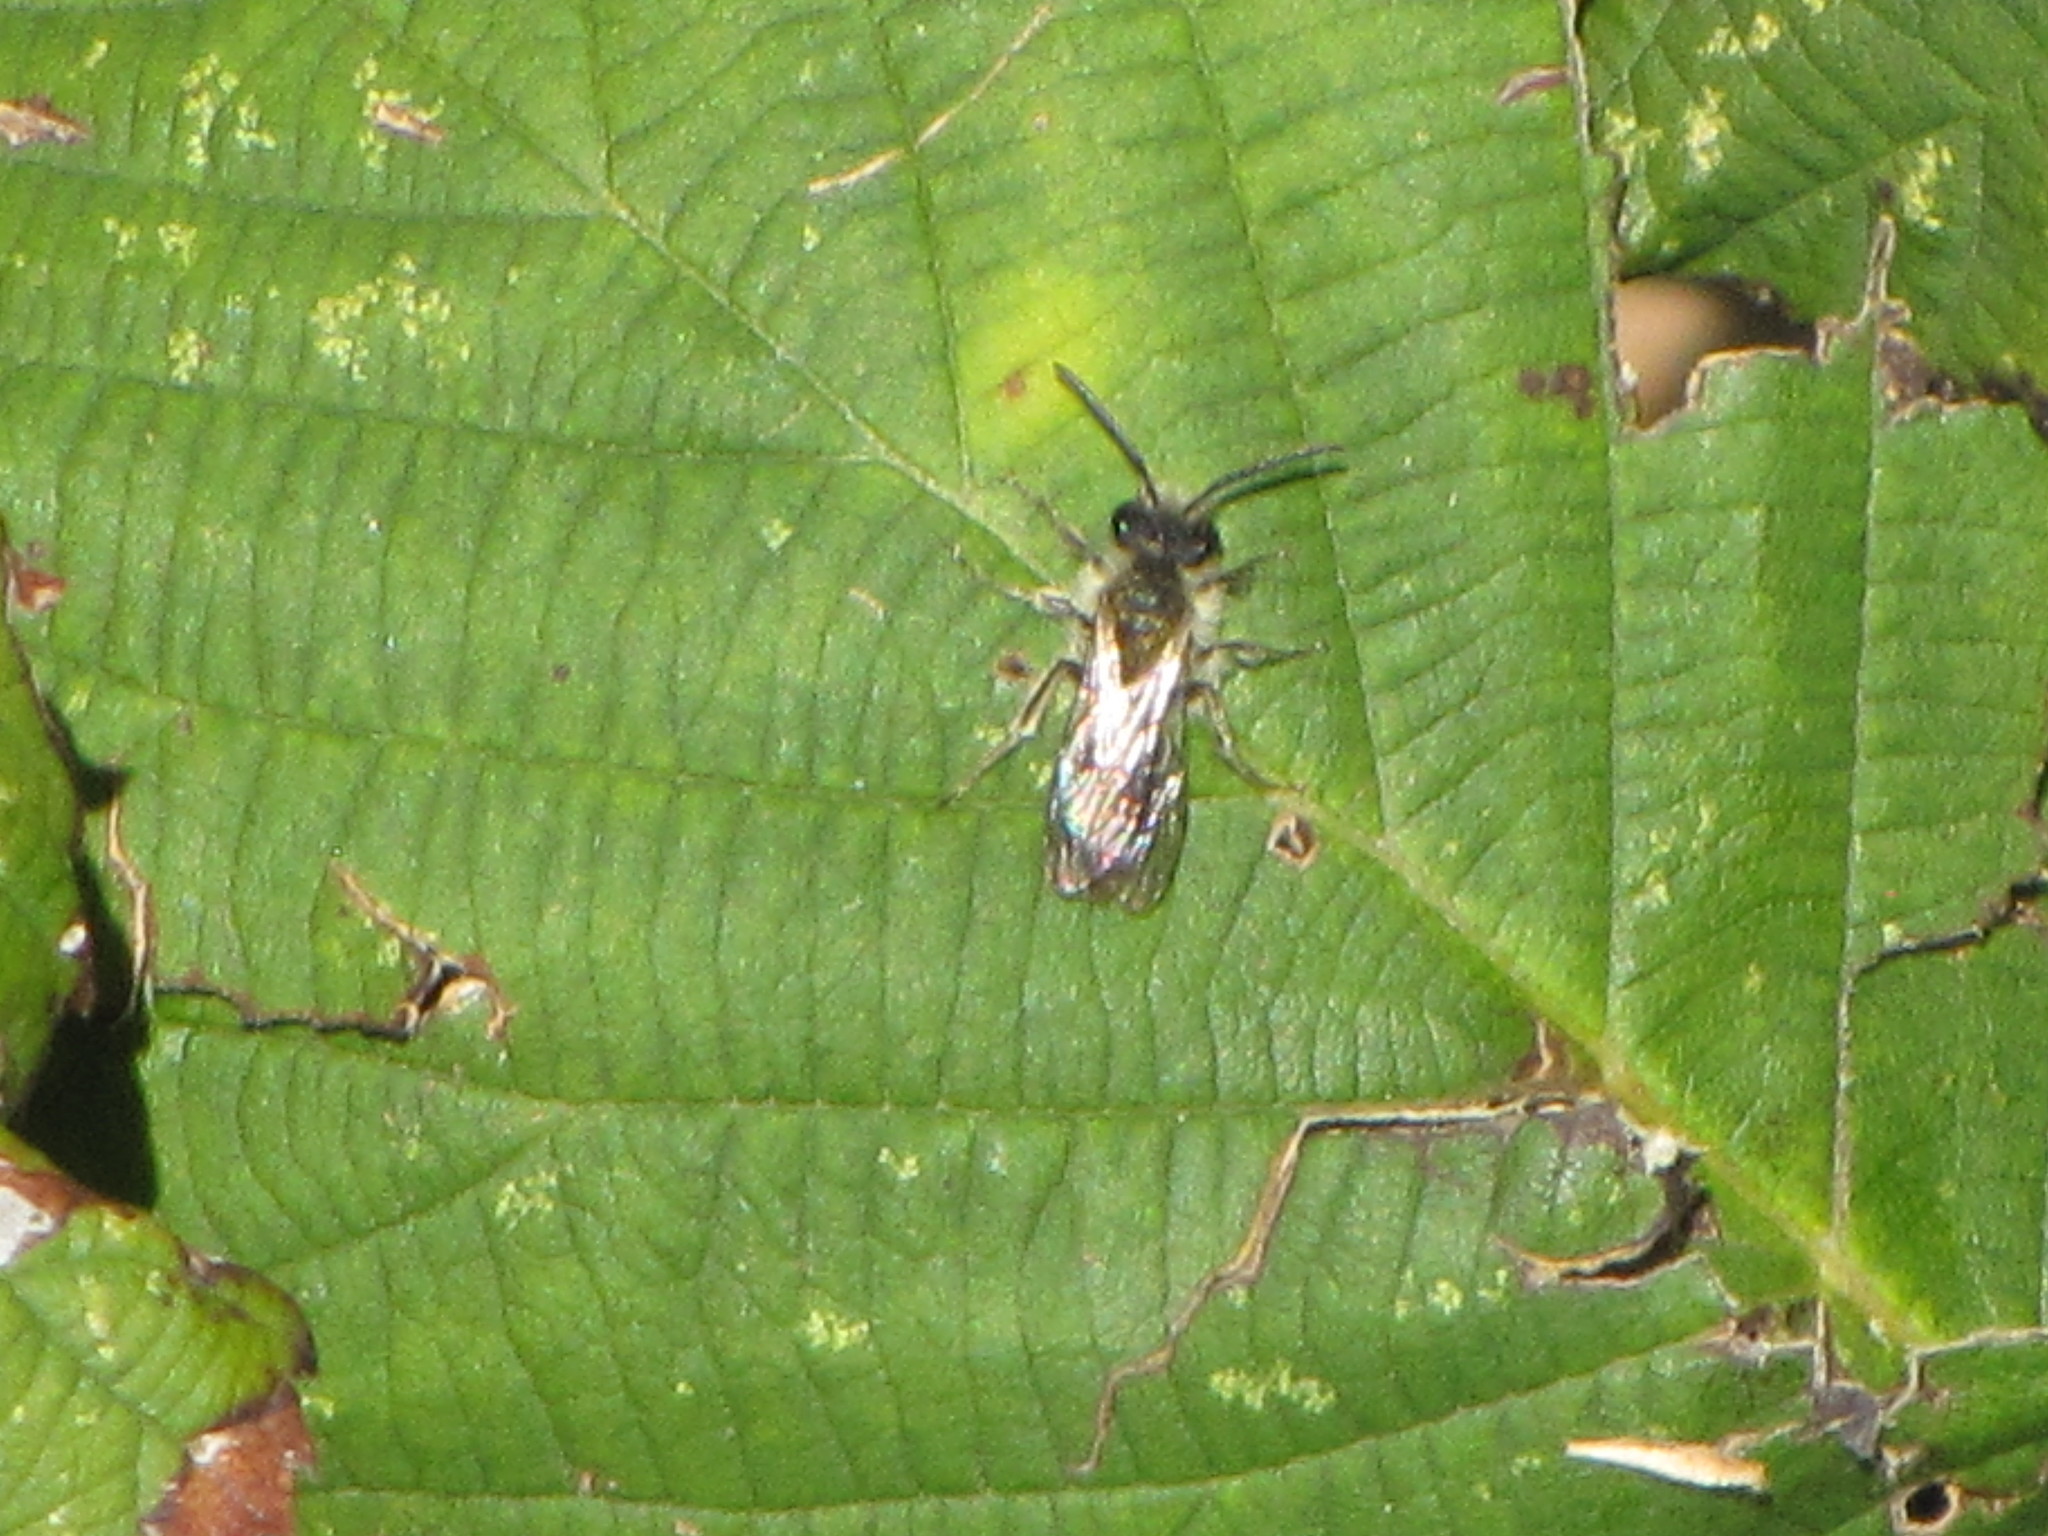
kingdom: Animalia
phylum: Arthropoda
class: Insecta
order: Hymenoptera
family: Andrenidae
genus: Andrena
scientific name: Andrena
